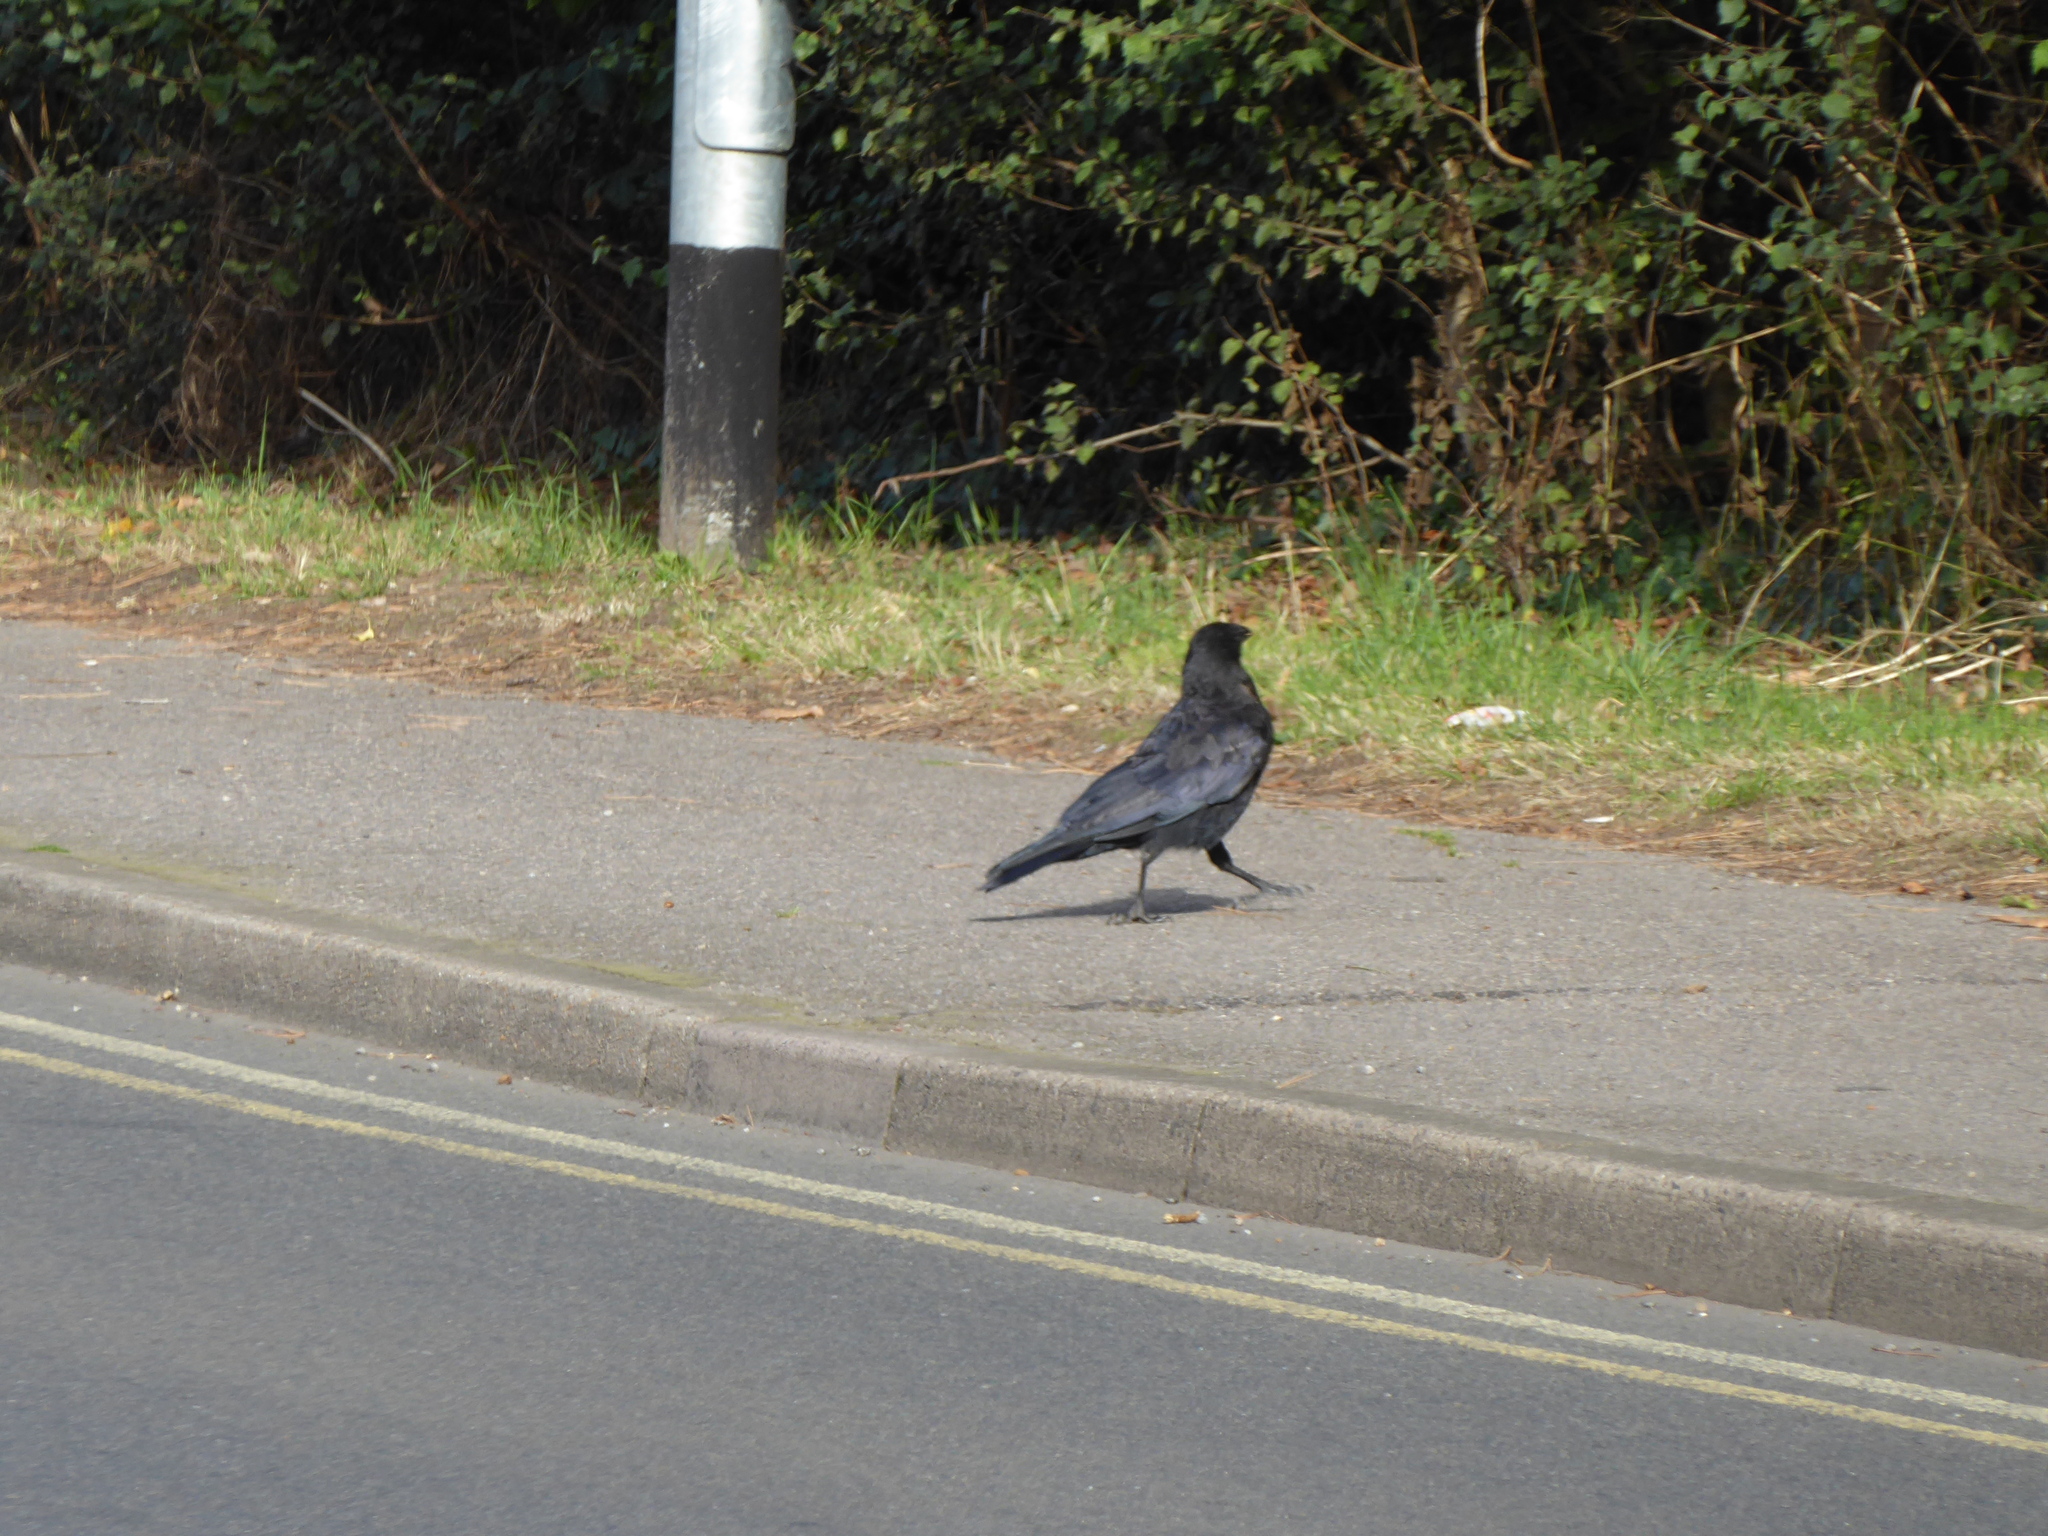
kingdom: Animalia
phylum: Chordata
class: Aves
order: Passeriformes
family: Corvidae
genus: Corvus
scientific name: Corvus corone
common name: Carrion crow
